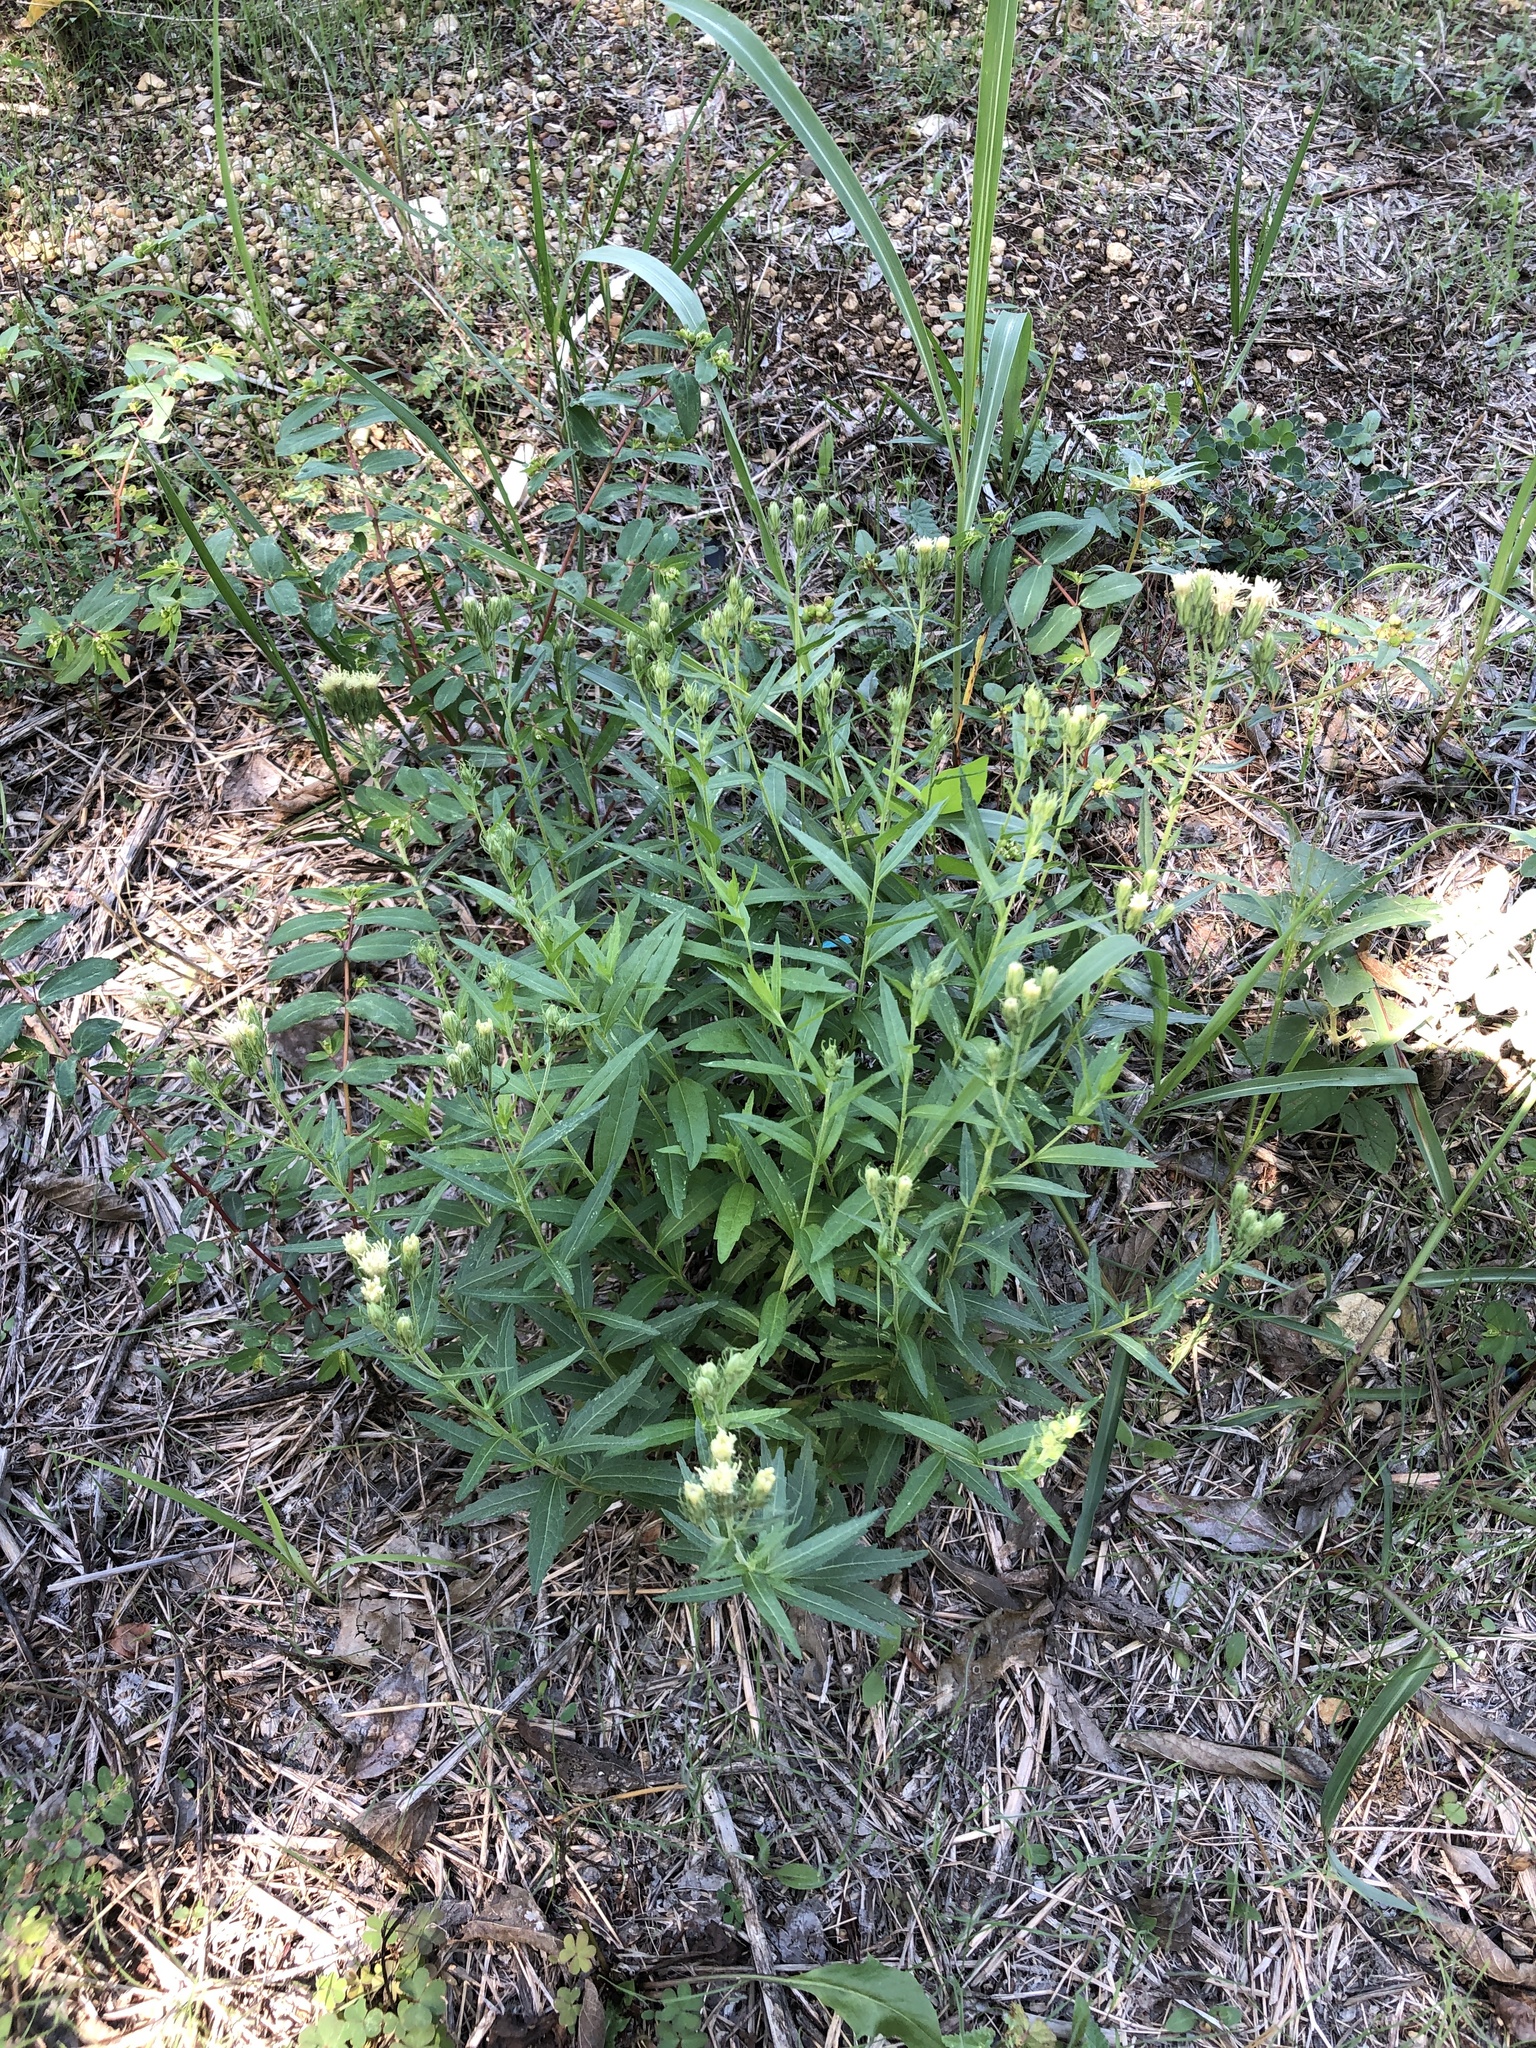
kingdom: Plantae
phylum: Tracheophyta
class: Magnoliopsida
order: Asterales
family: Asteraceae
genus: Brickellia
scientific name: Brickellia eupatorioides
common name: False boneset
